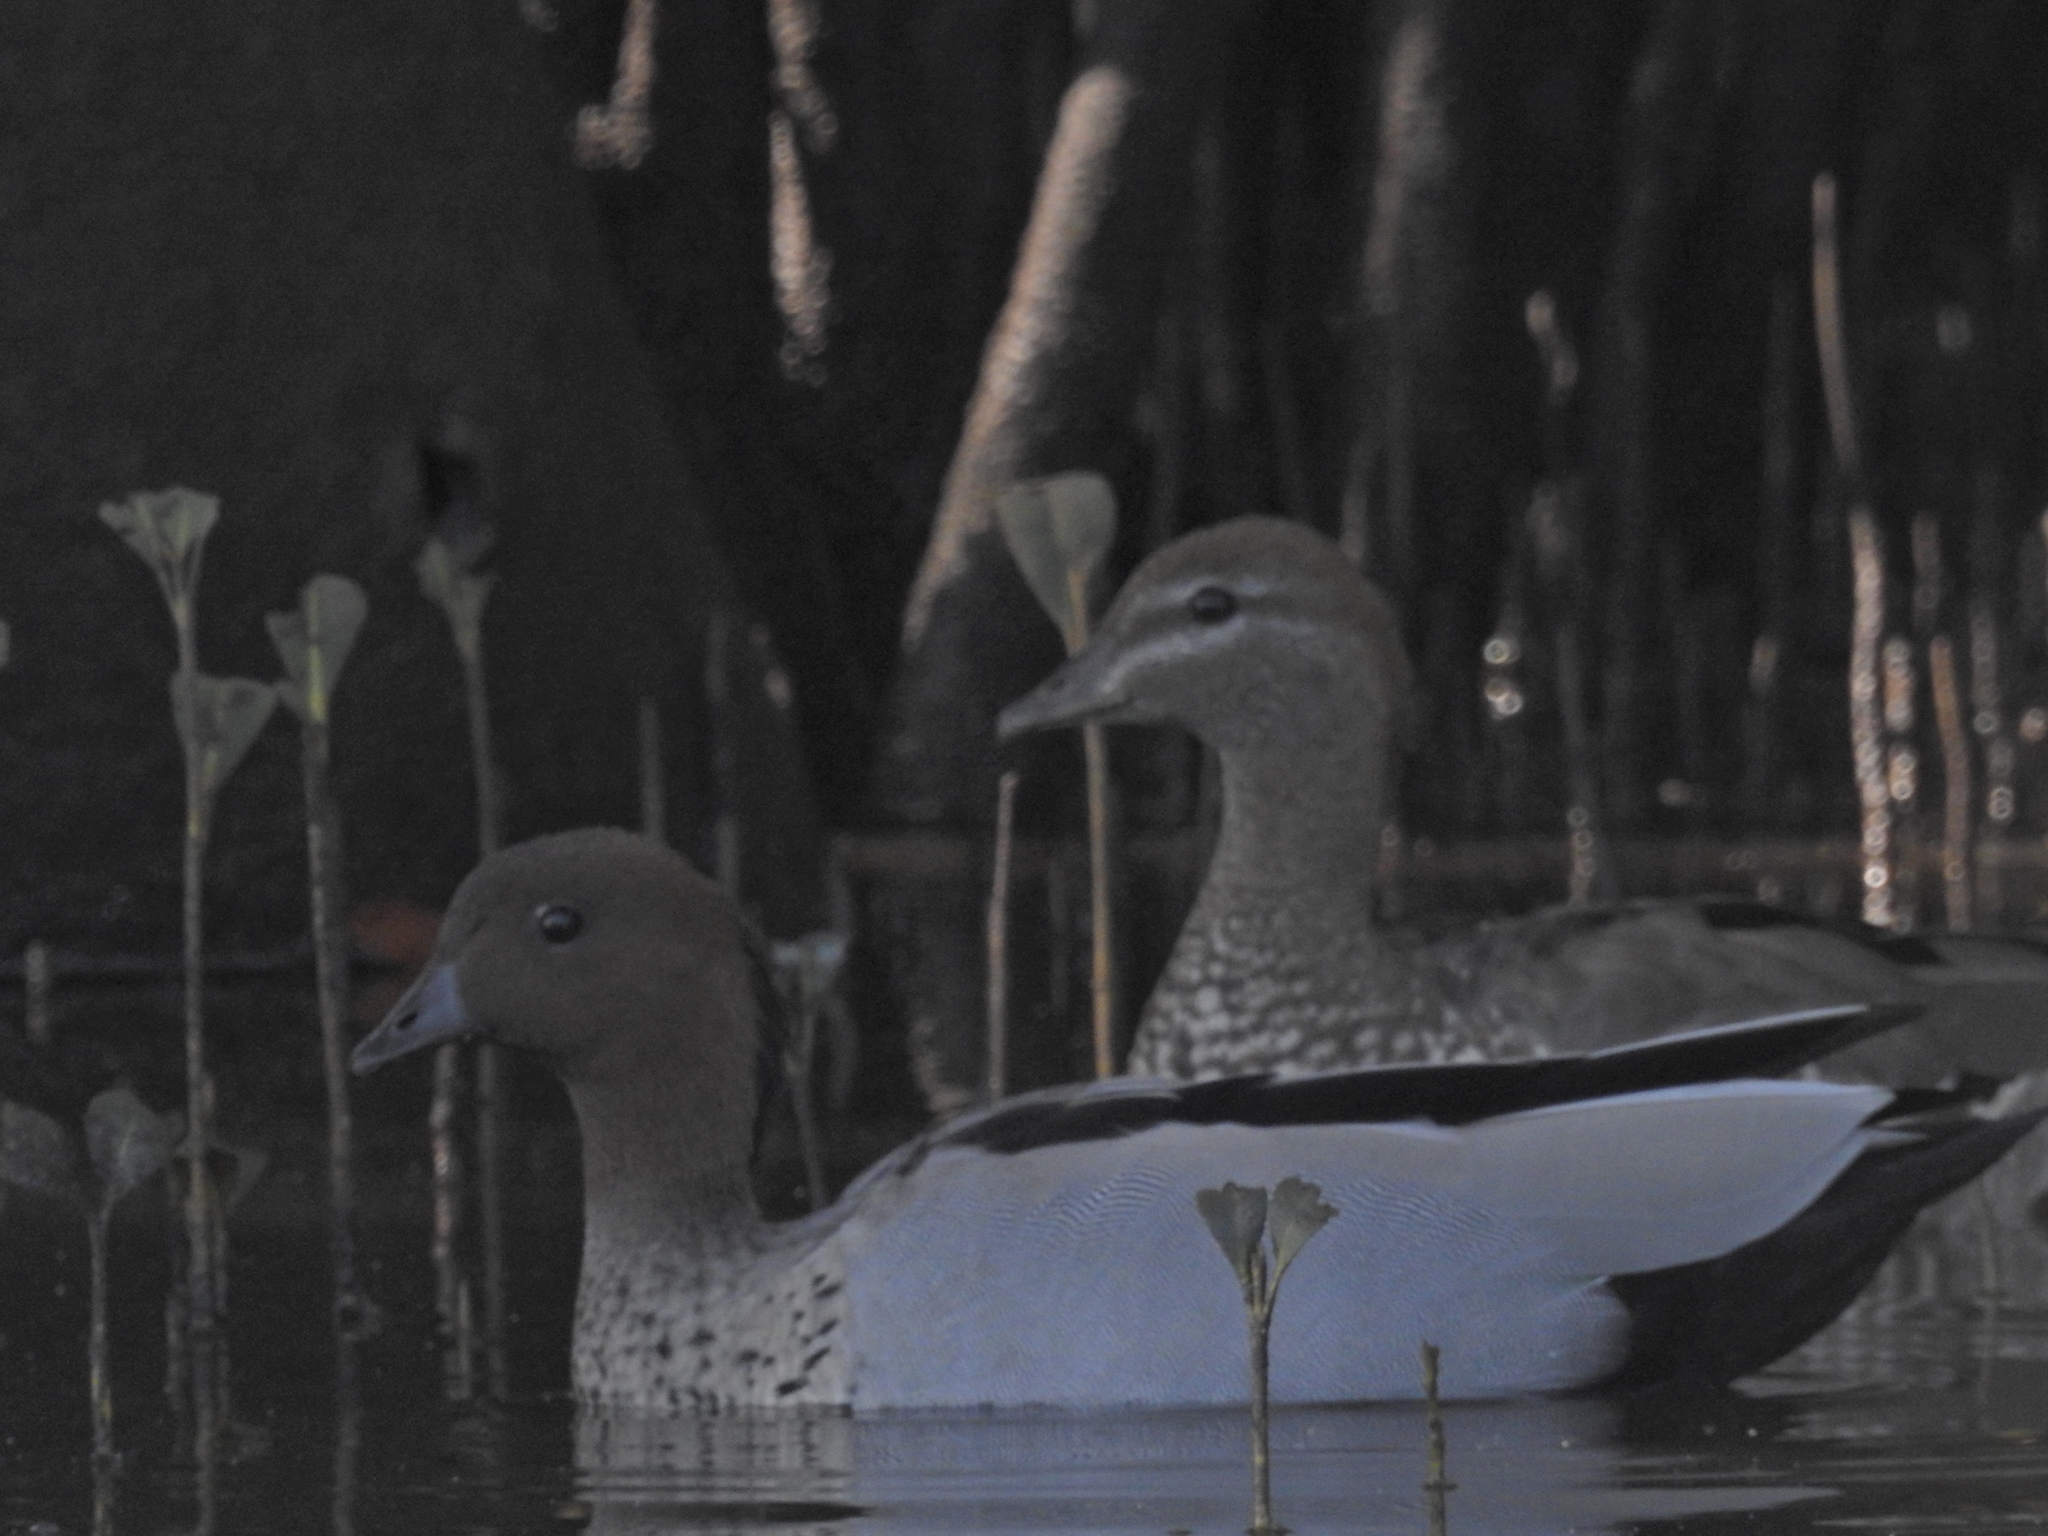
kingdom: Animalia
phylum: Chordata
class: Aves
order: Anseriformes
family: Anatidae
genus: Chenonetta
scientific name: Chenonetta jubata
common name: Maned duck
